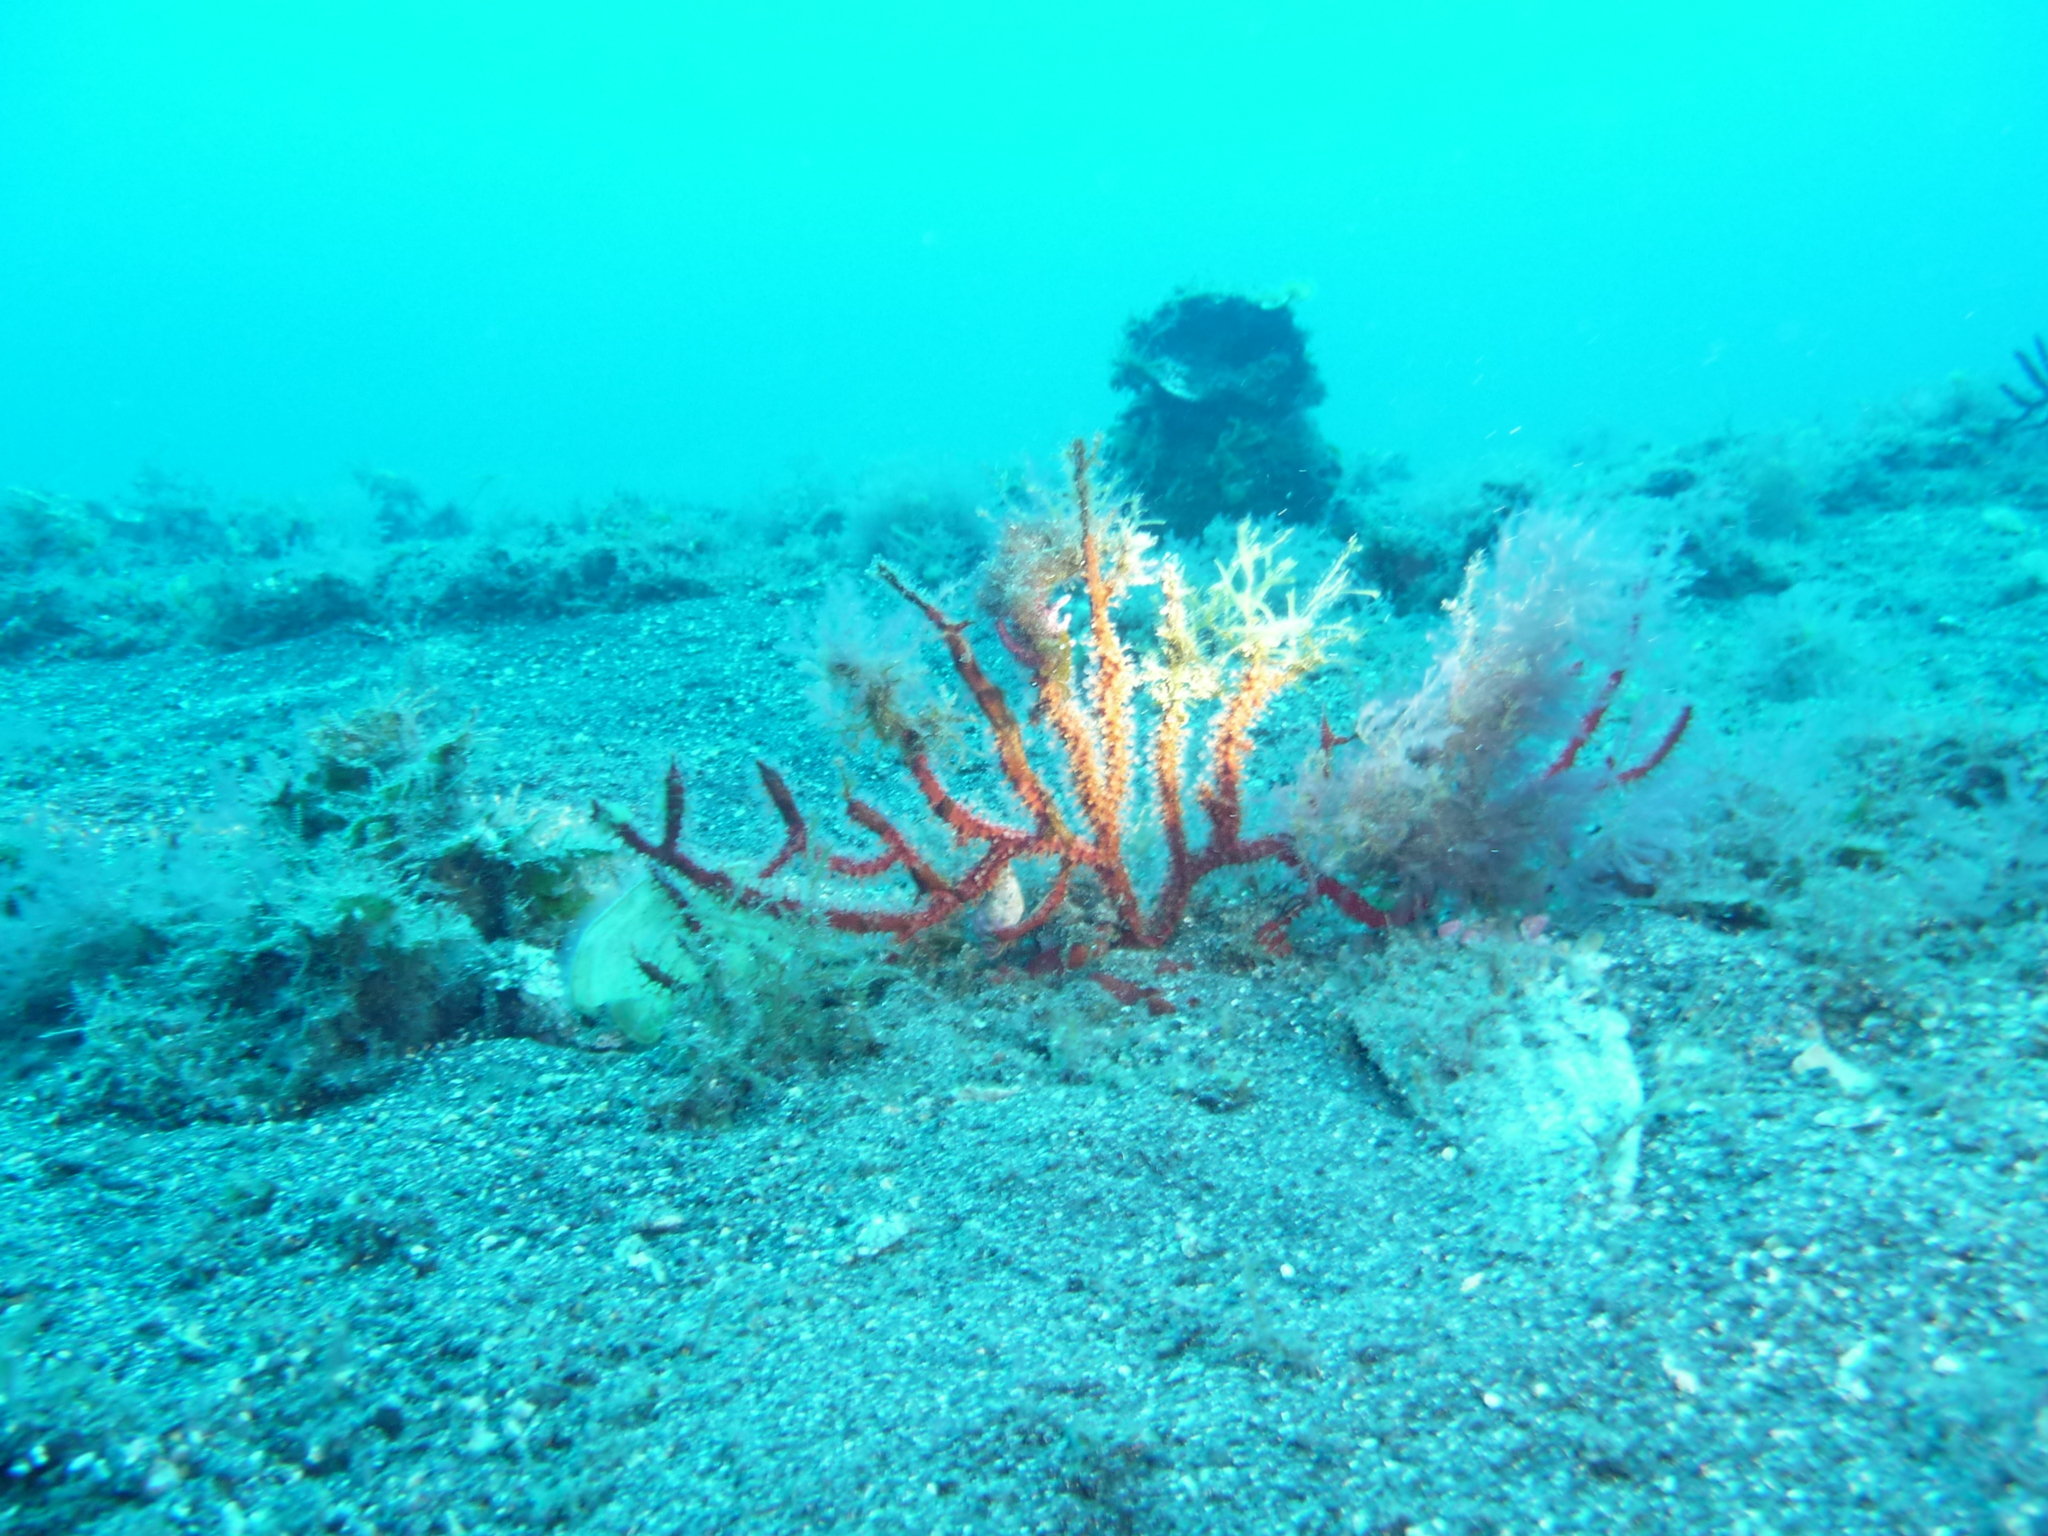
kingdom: Animalia
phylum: Cnidaria
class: Anthozoa
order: Malacalcyonacea
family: Gorgoniidae
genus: Leptogorgia
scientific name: Leptogorgia ruberrima
